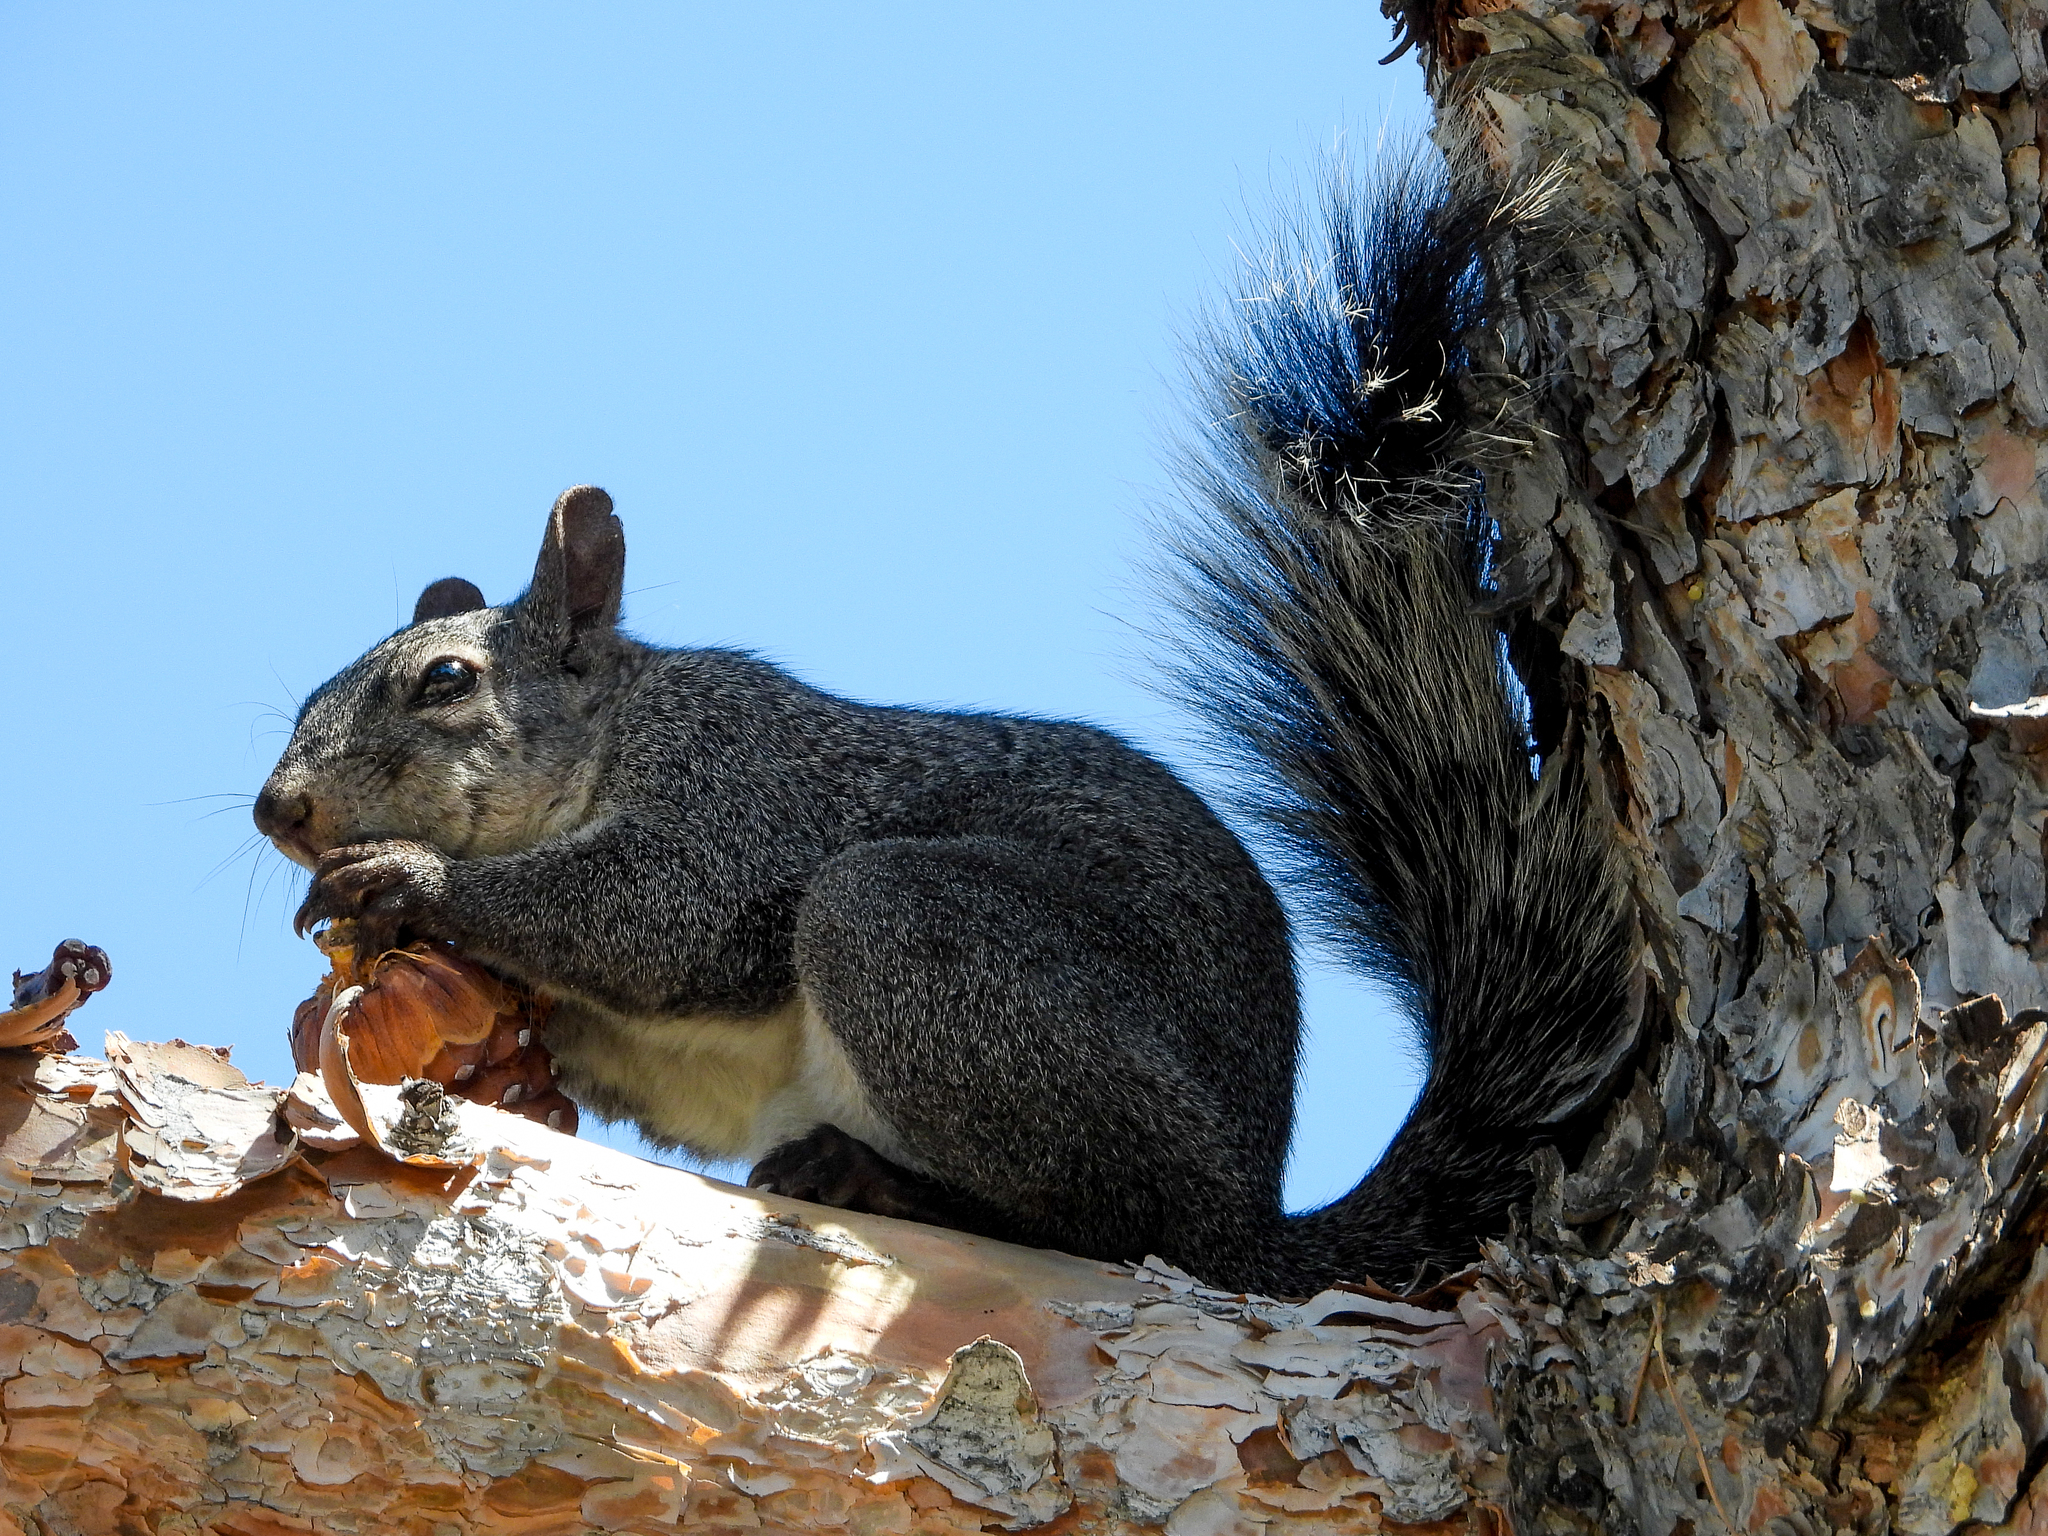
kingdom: Animalia
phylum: Chordata
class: Mammalia
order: Rodentia
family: Sciuridae
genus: Sciurus
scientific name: Sciurus griseus
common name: Western gray squirrel
